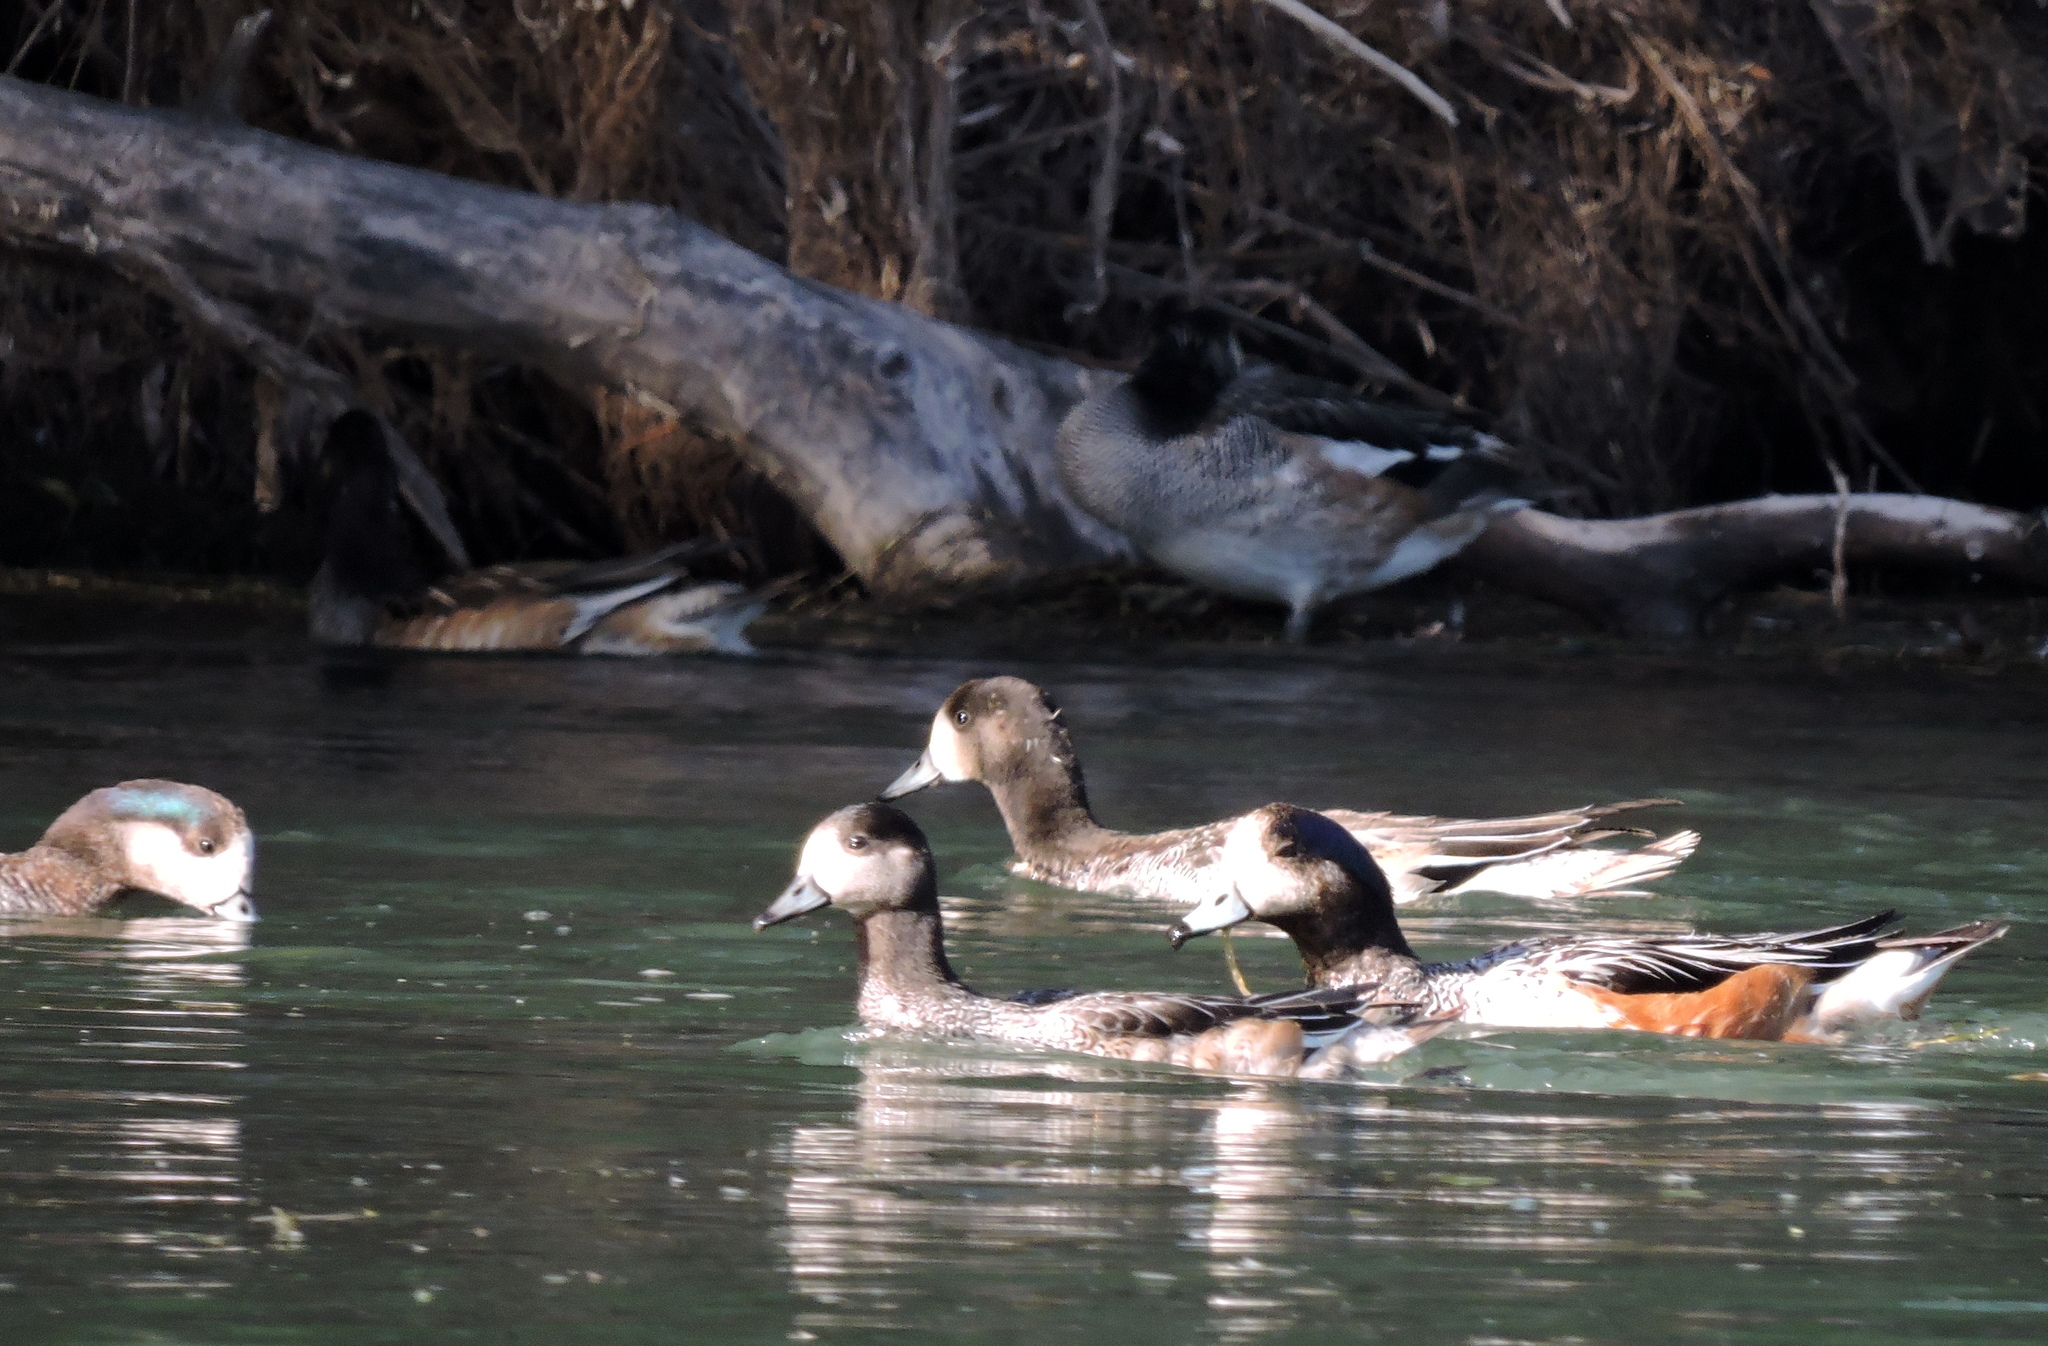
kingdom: Animalia
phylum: Chordata
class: Aves
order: Anseriformes
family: Anatidae
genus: Mareca
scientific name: Mareca sibilatrix
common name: Chiloe wigeon
